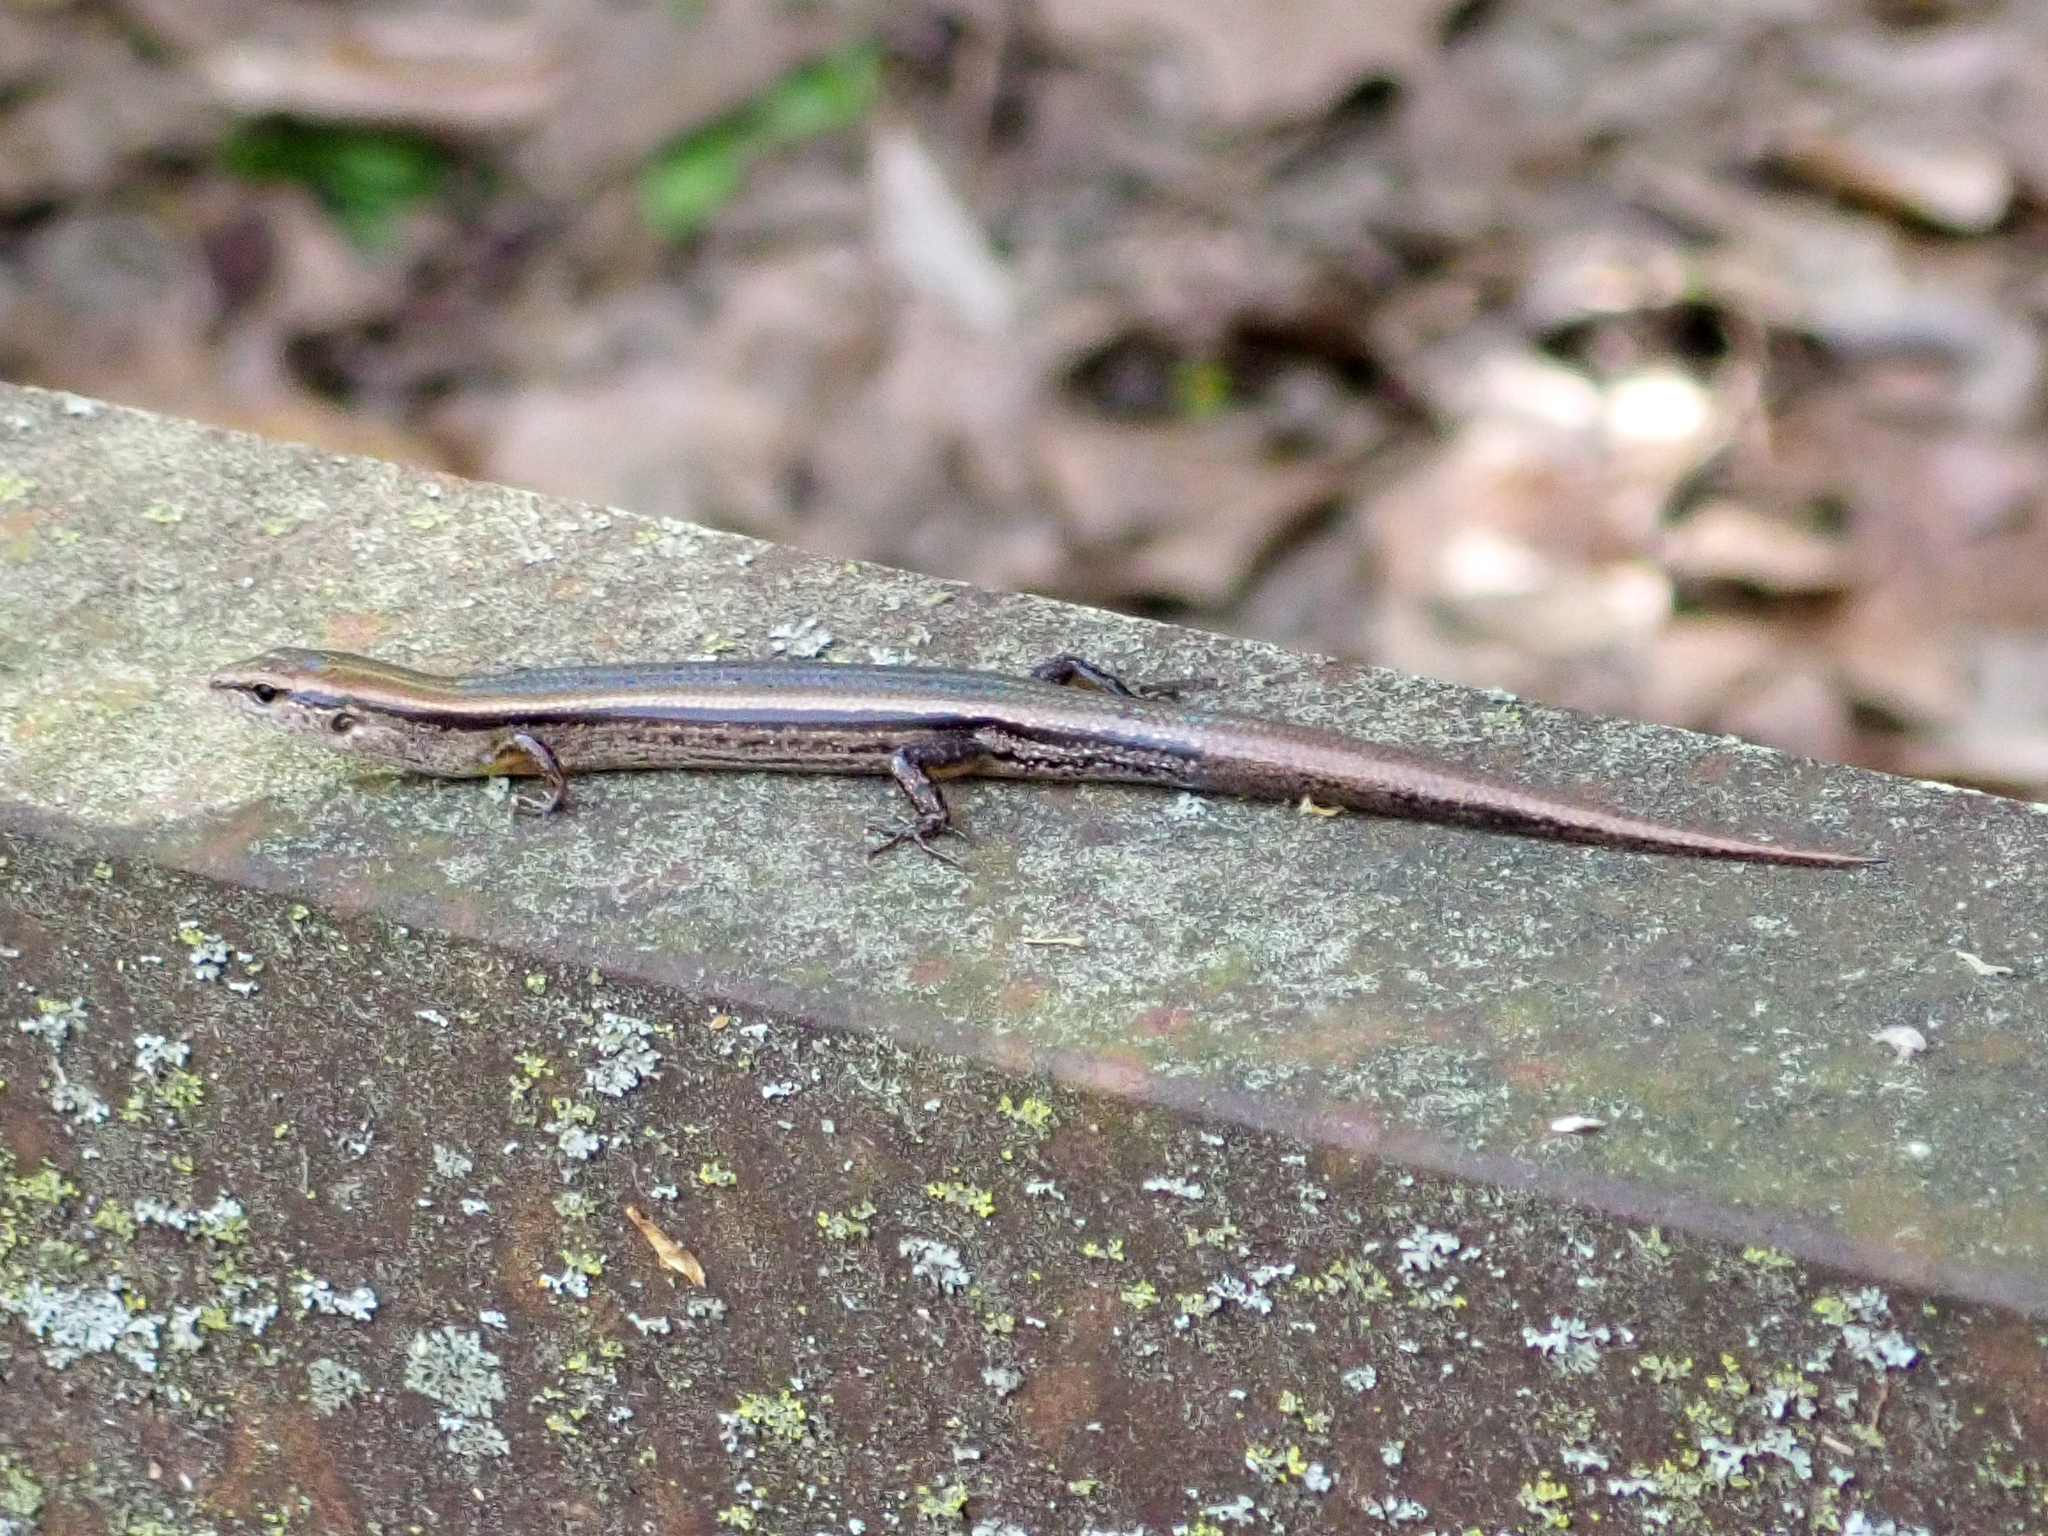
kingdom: Animalia
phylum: Chordata
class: Squamata
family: Scincidae
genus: Scincella
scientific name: Scincella lateralis
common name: Ground skink
